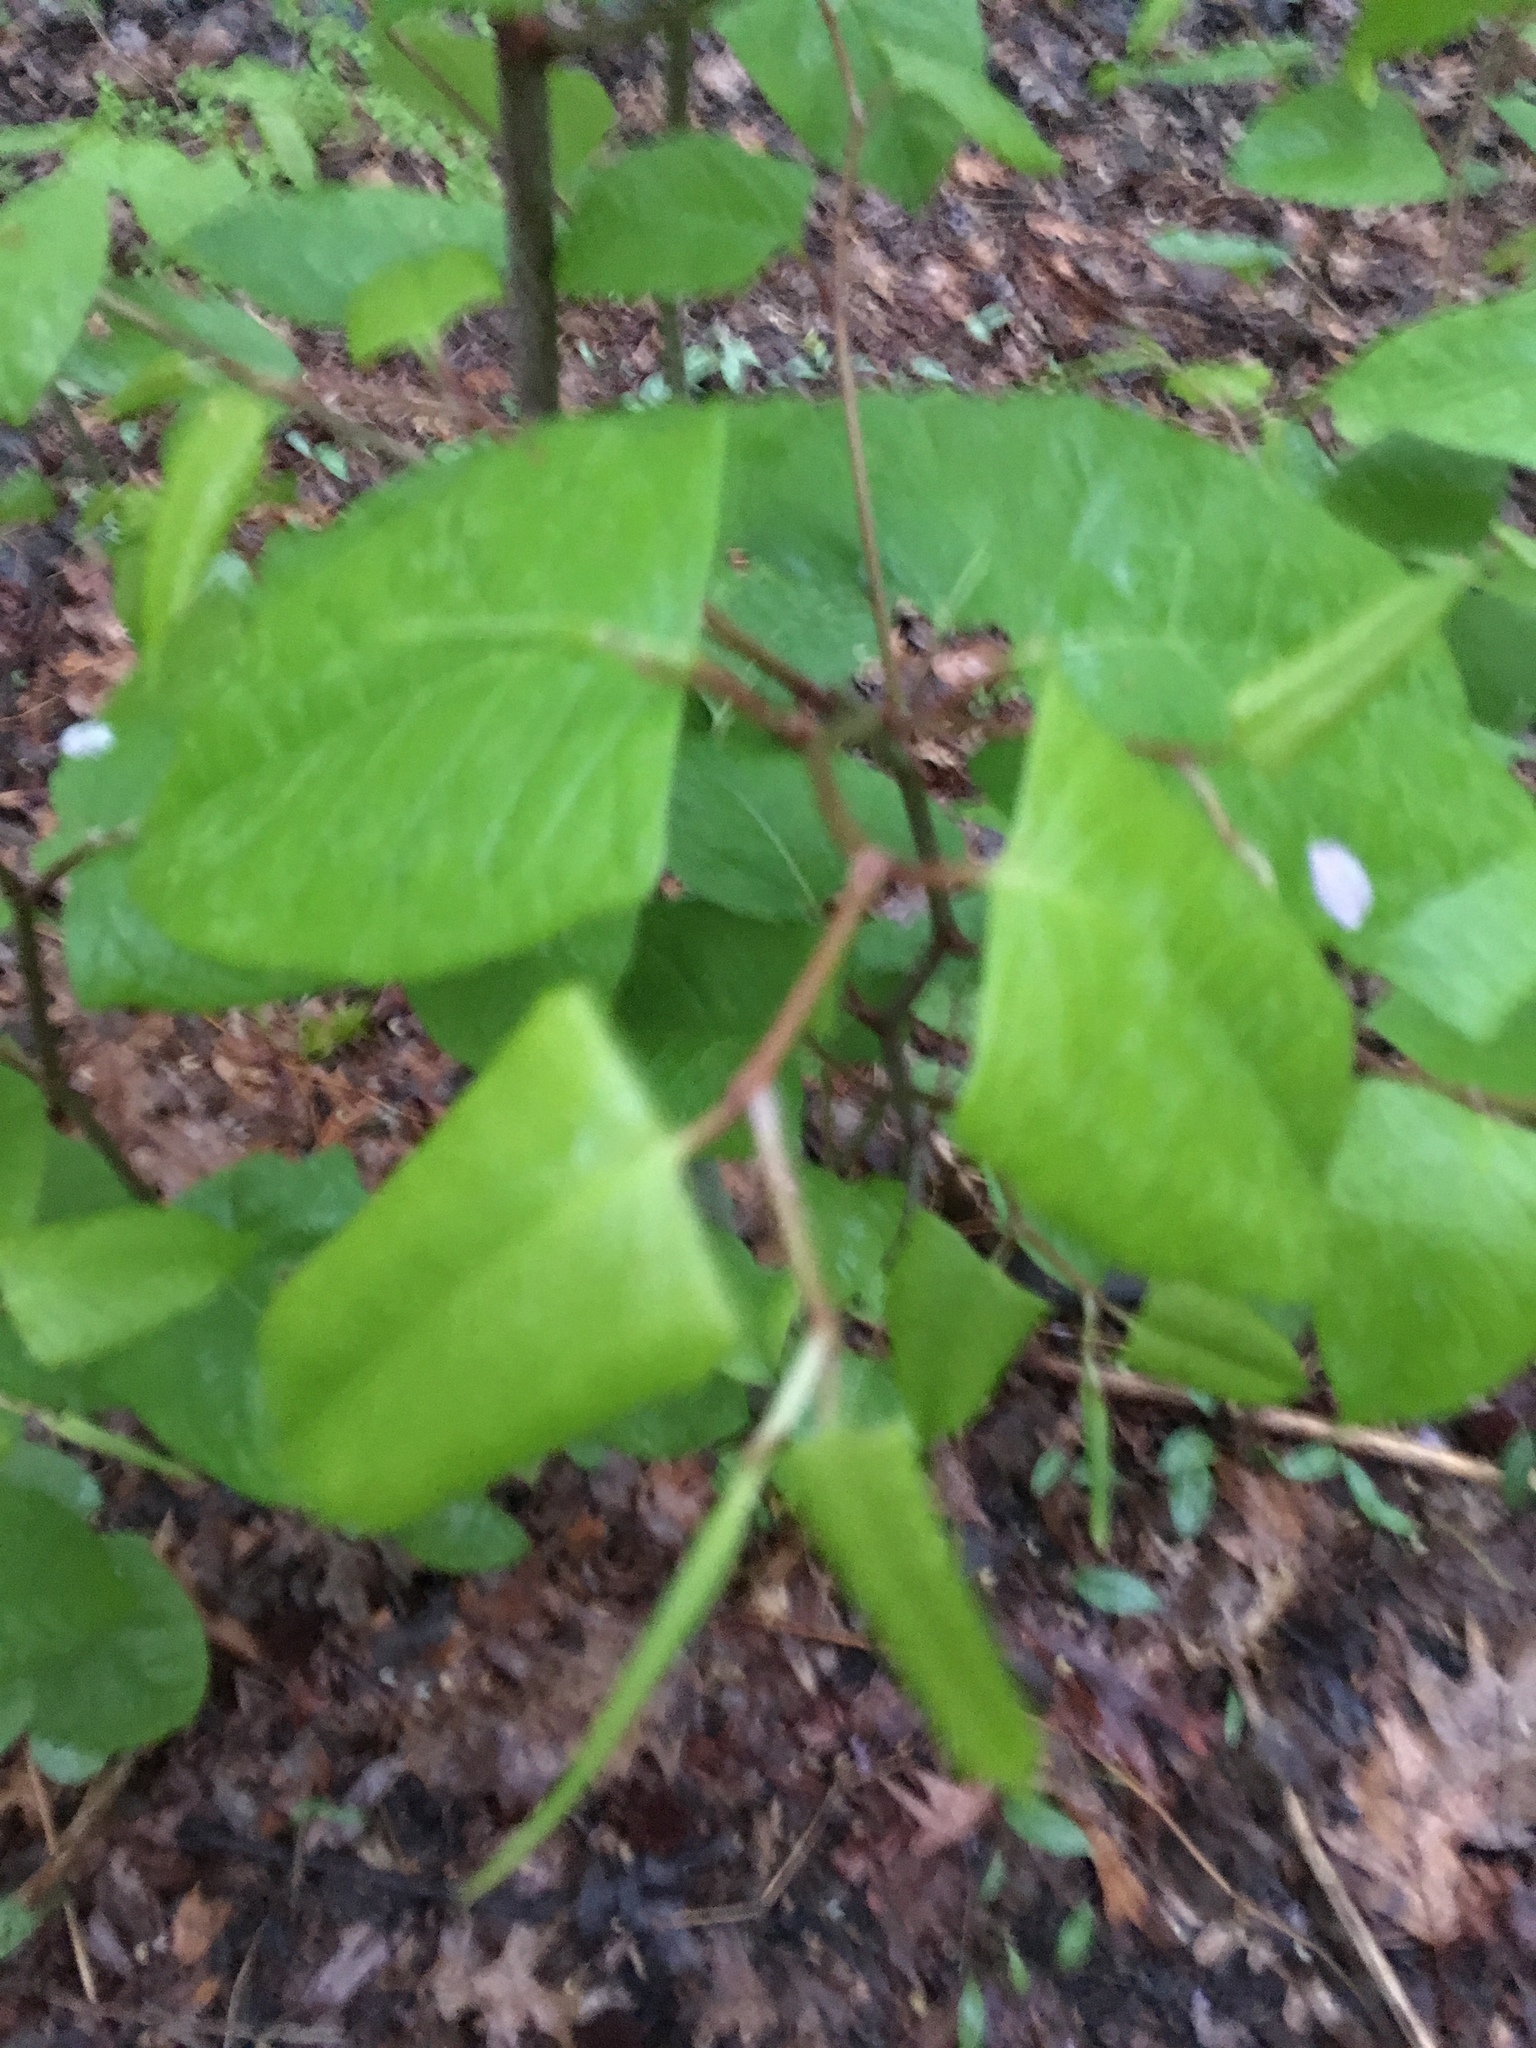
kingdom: Plantae
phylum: Tracheophyta
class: Magnoliopsida
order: Caryophyllales
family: Polygonaceae
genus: Reynoutria
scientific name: Reynoutria japonica
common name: Japanese knotweed
